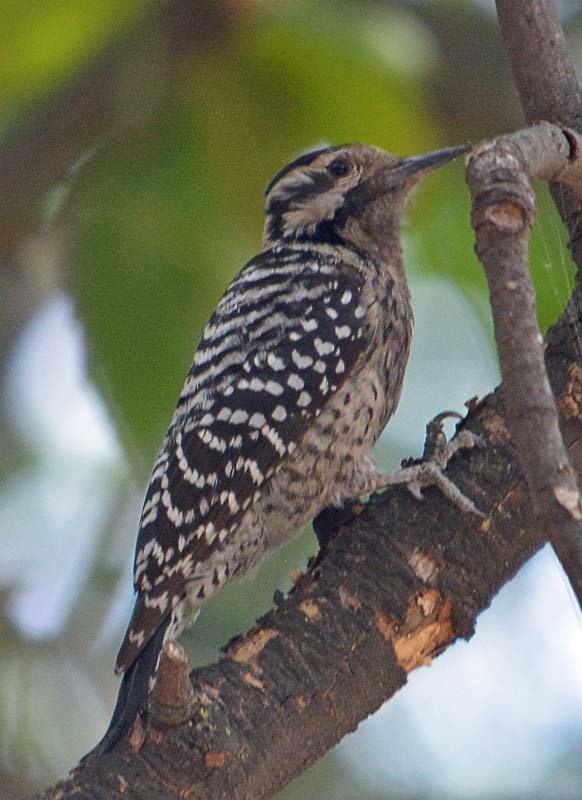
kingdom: Animalia
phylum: Chordata
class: Aves
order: Piciformes
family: Picidae
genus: Dryobates
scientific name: Dryobates scalaris
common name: Ladder-backed woodpecker
